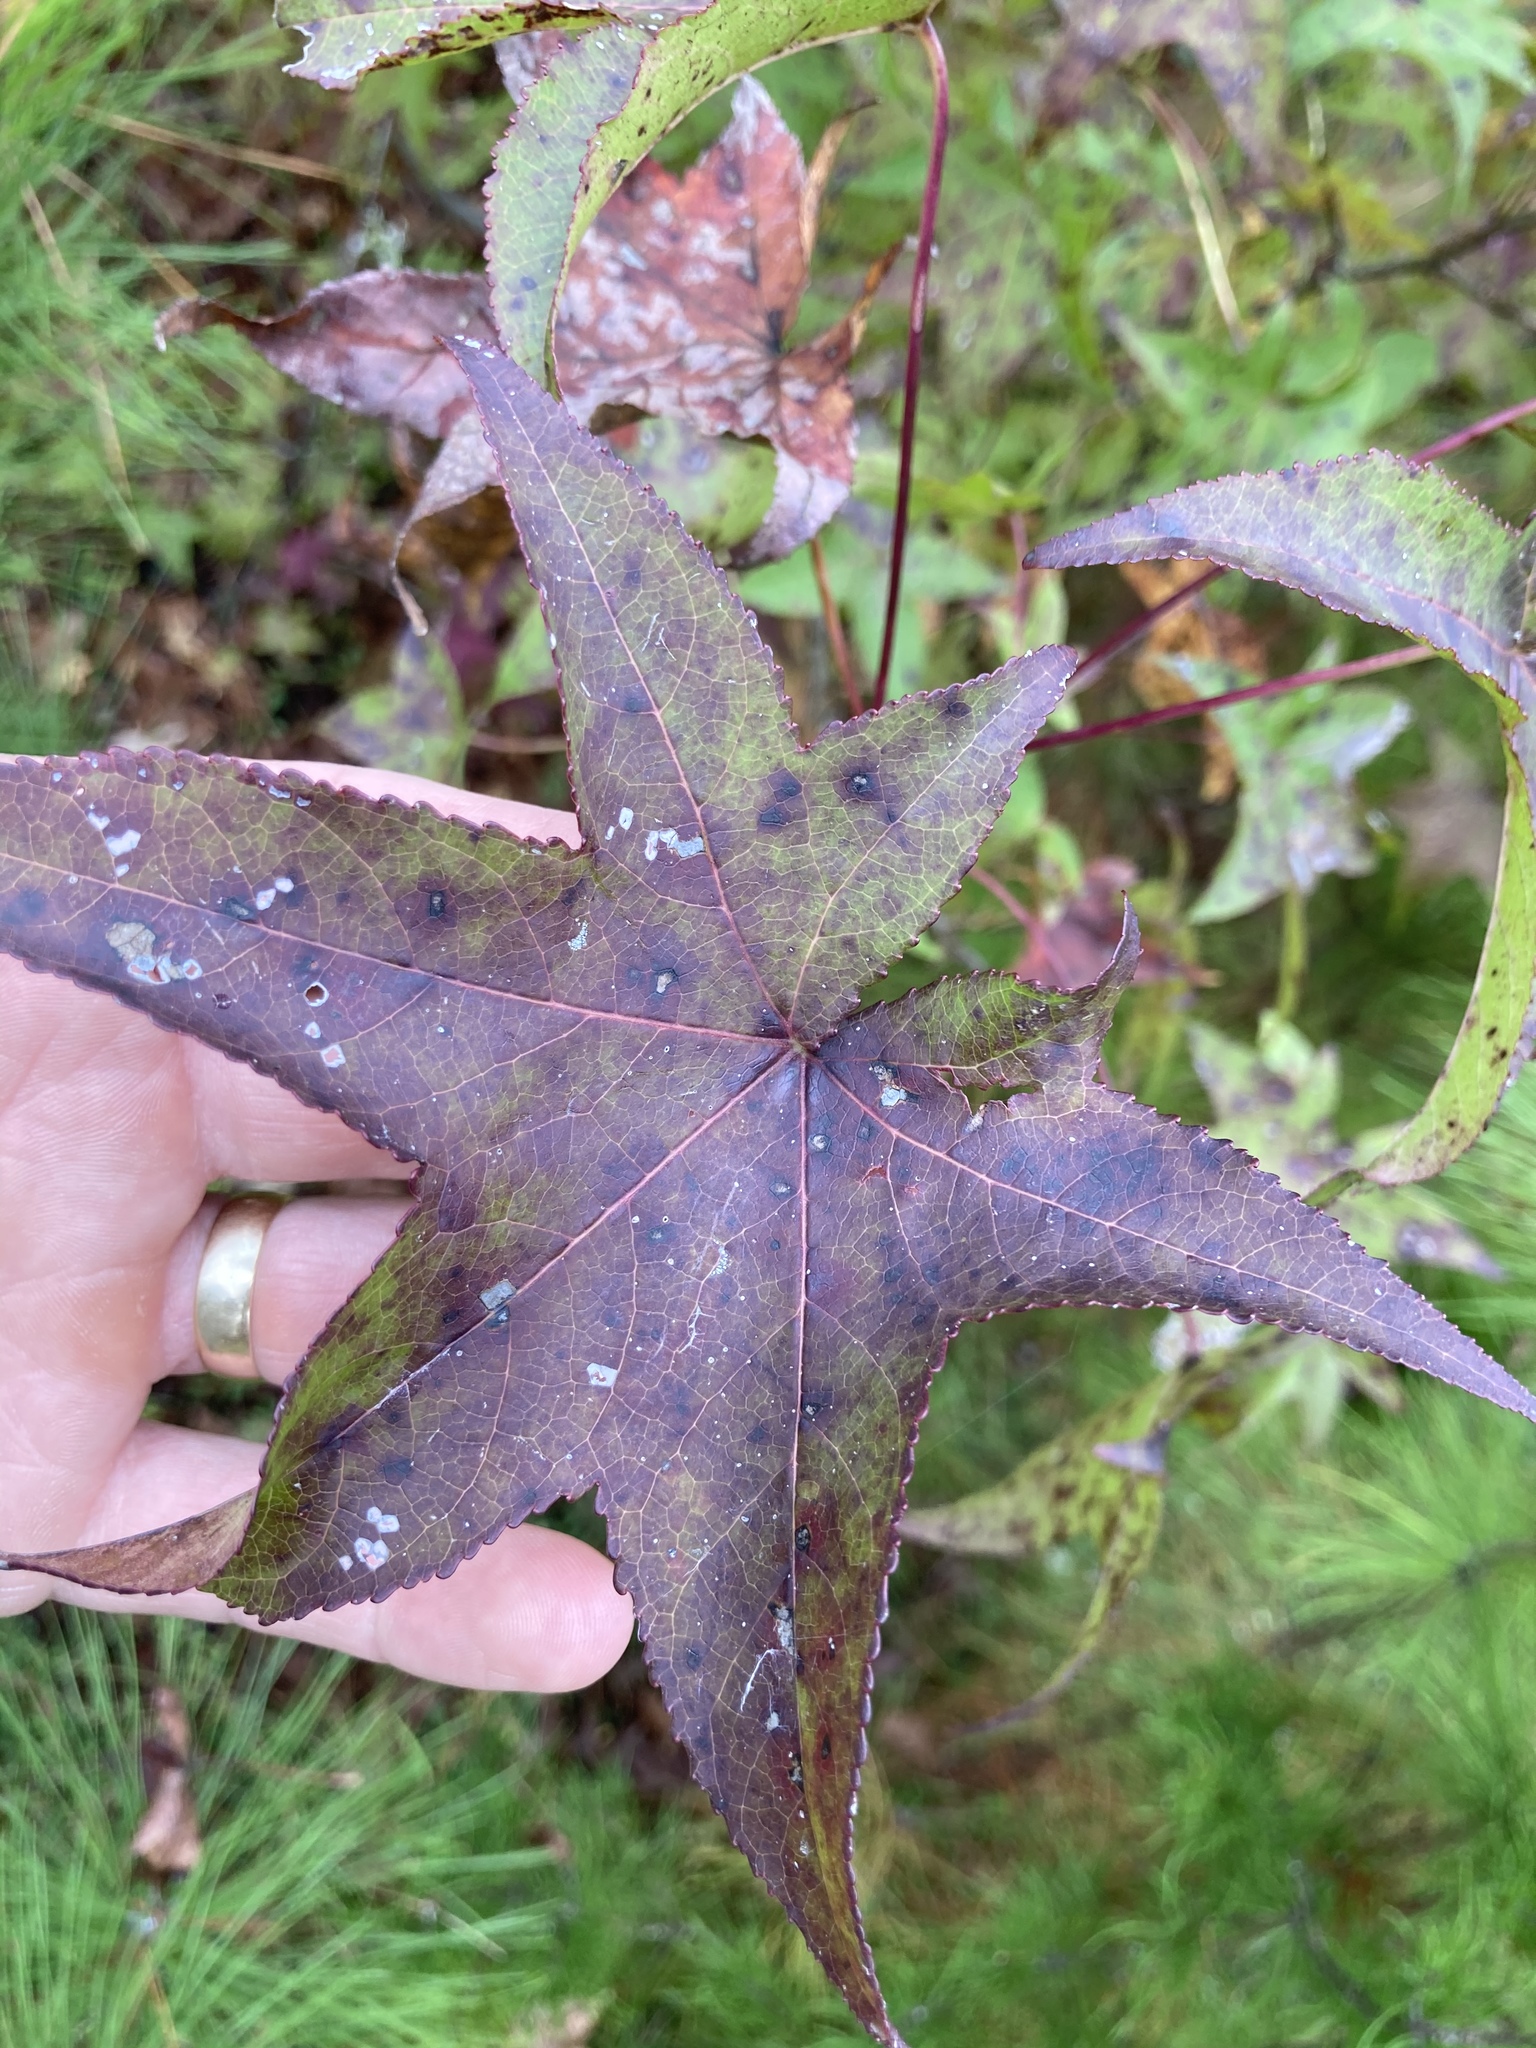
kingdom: Plantae
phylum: Tracheophyta
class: Magnoliopsida
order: Saxifragales
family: Altingiaceae
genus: Liquidambar
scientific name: Liquidambar styraciflua
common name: Sweet gum
